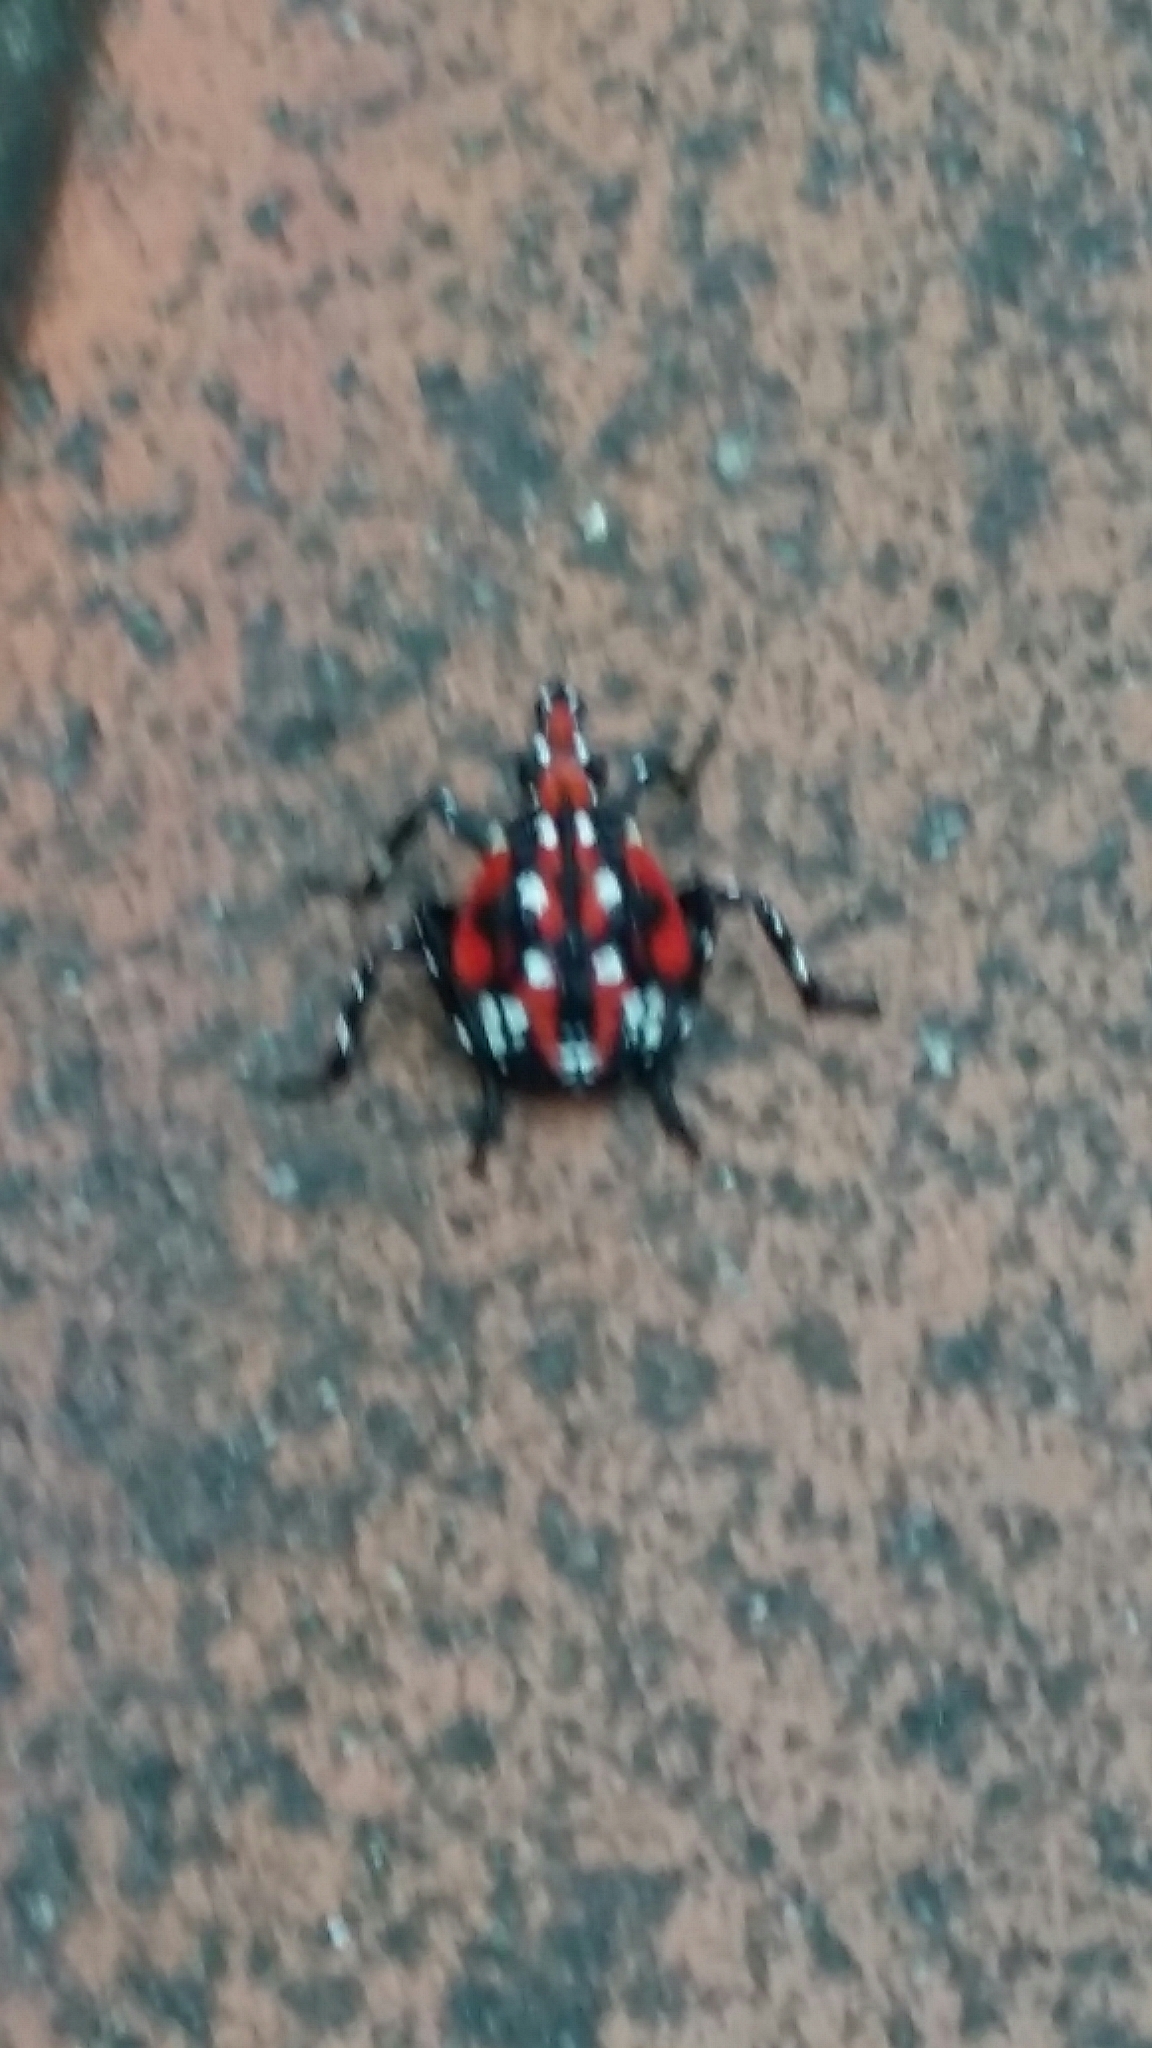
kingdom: Animalia
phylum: Arthropoda
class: Insecta
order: Hemiptera
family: Fulgoridae
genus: Lycorma
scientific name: Lycorma delicatula
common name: Spotted lanternfly
